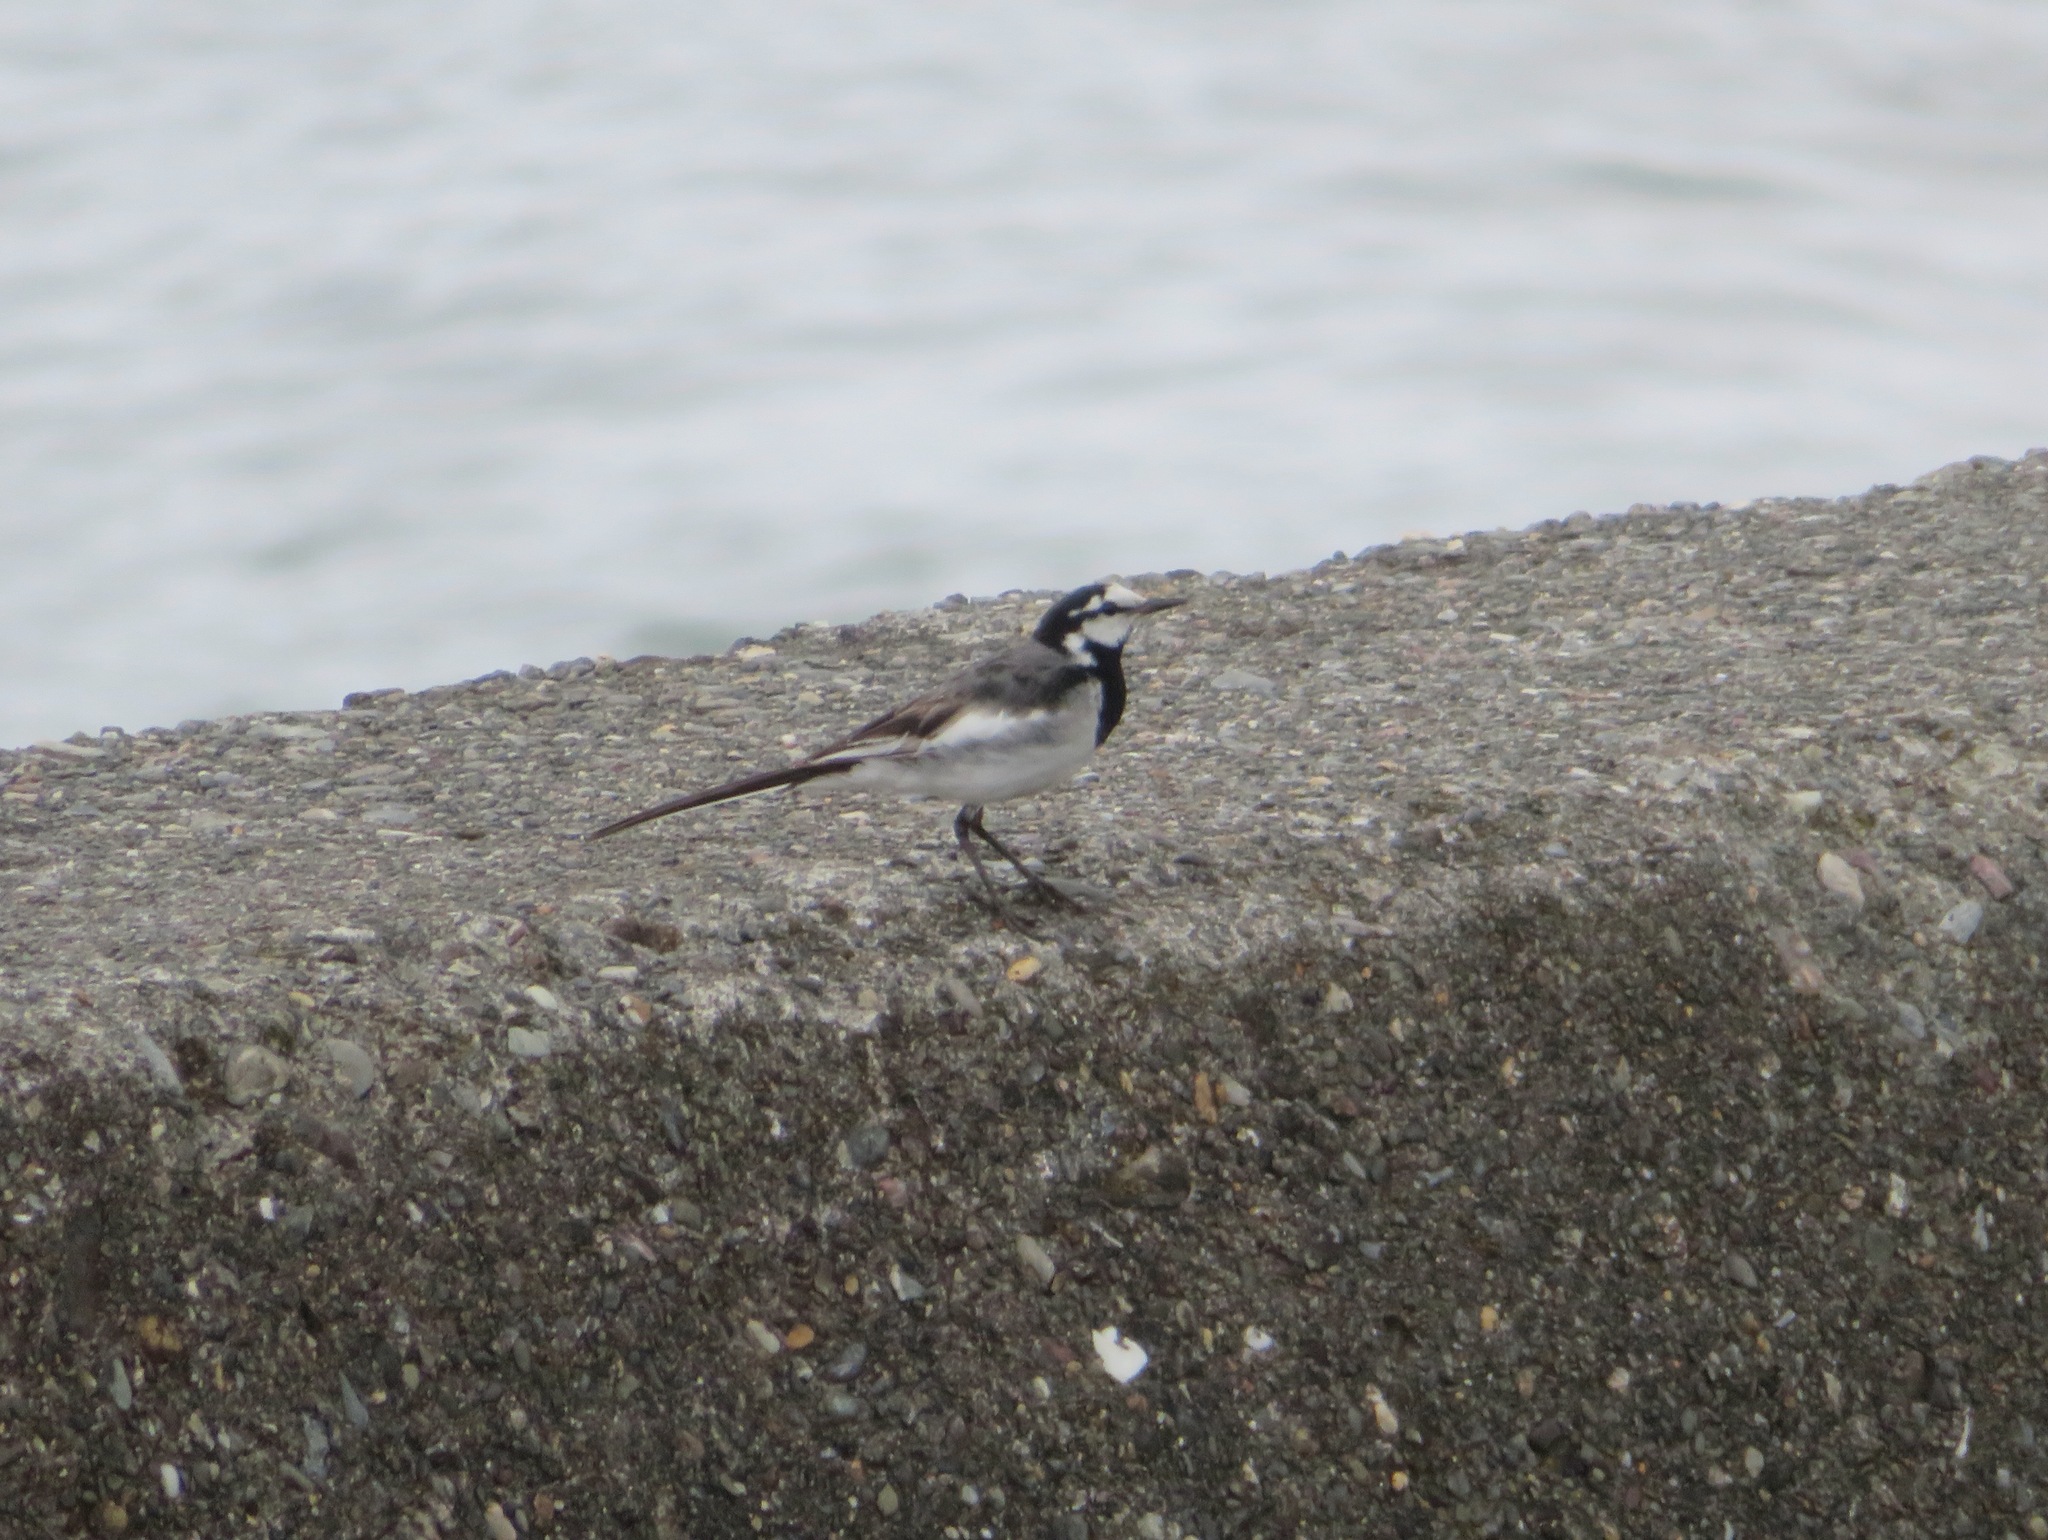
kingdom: Animalia
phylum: Chordata
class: Aves
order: Passeriformes
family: Motacillidae
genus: Motacilla
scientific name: Motacilla alba
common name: White wagtail
